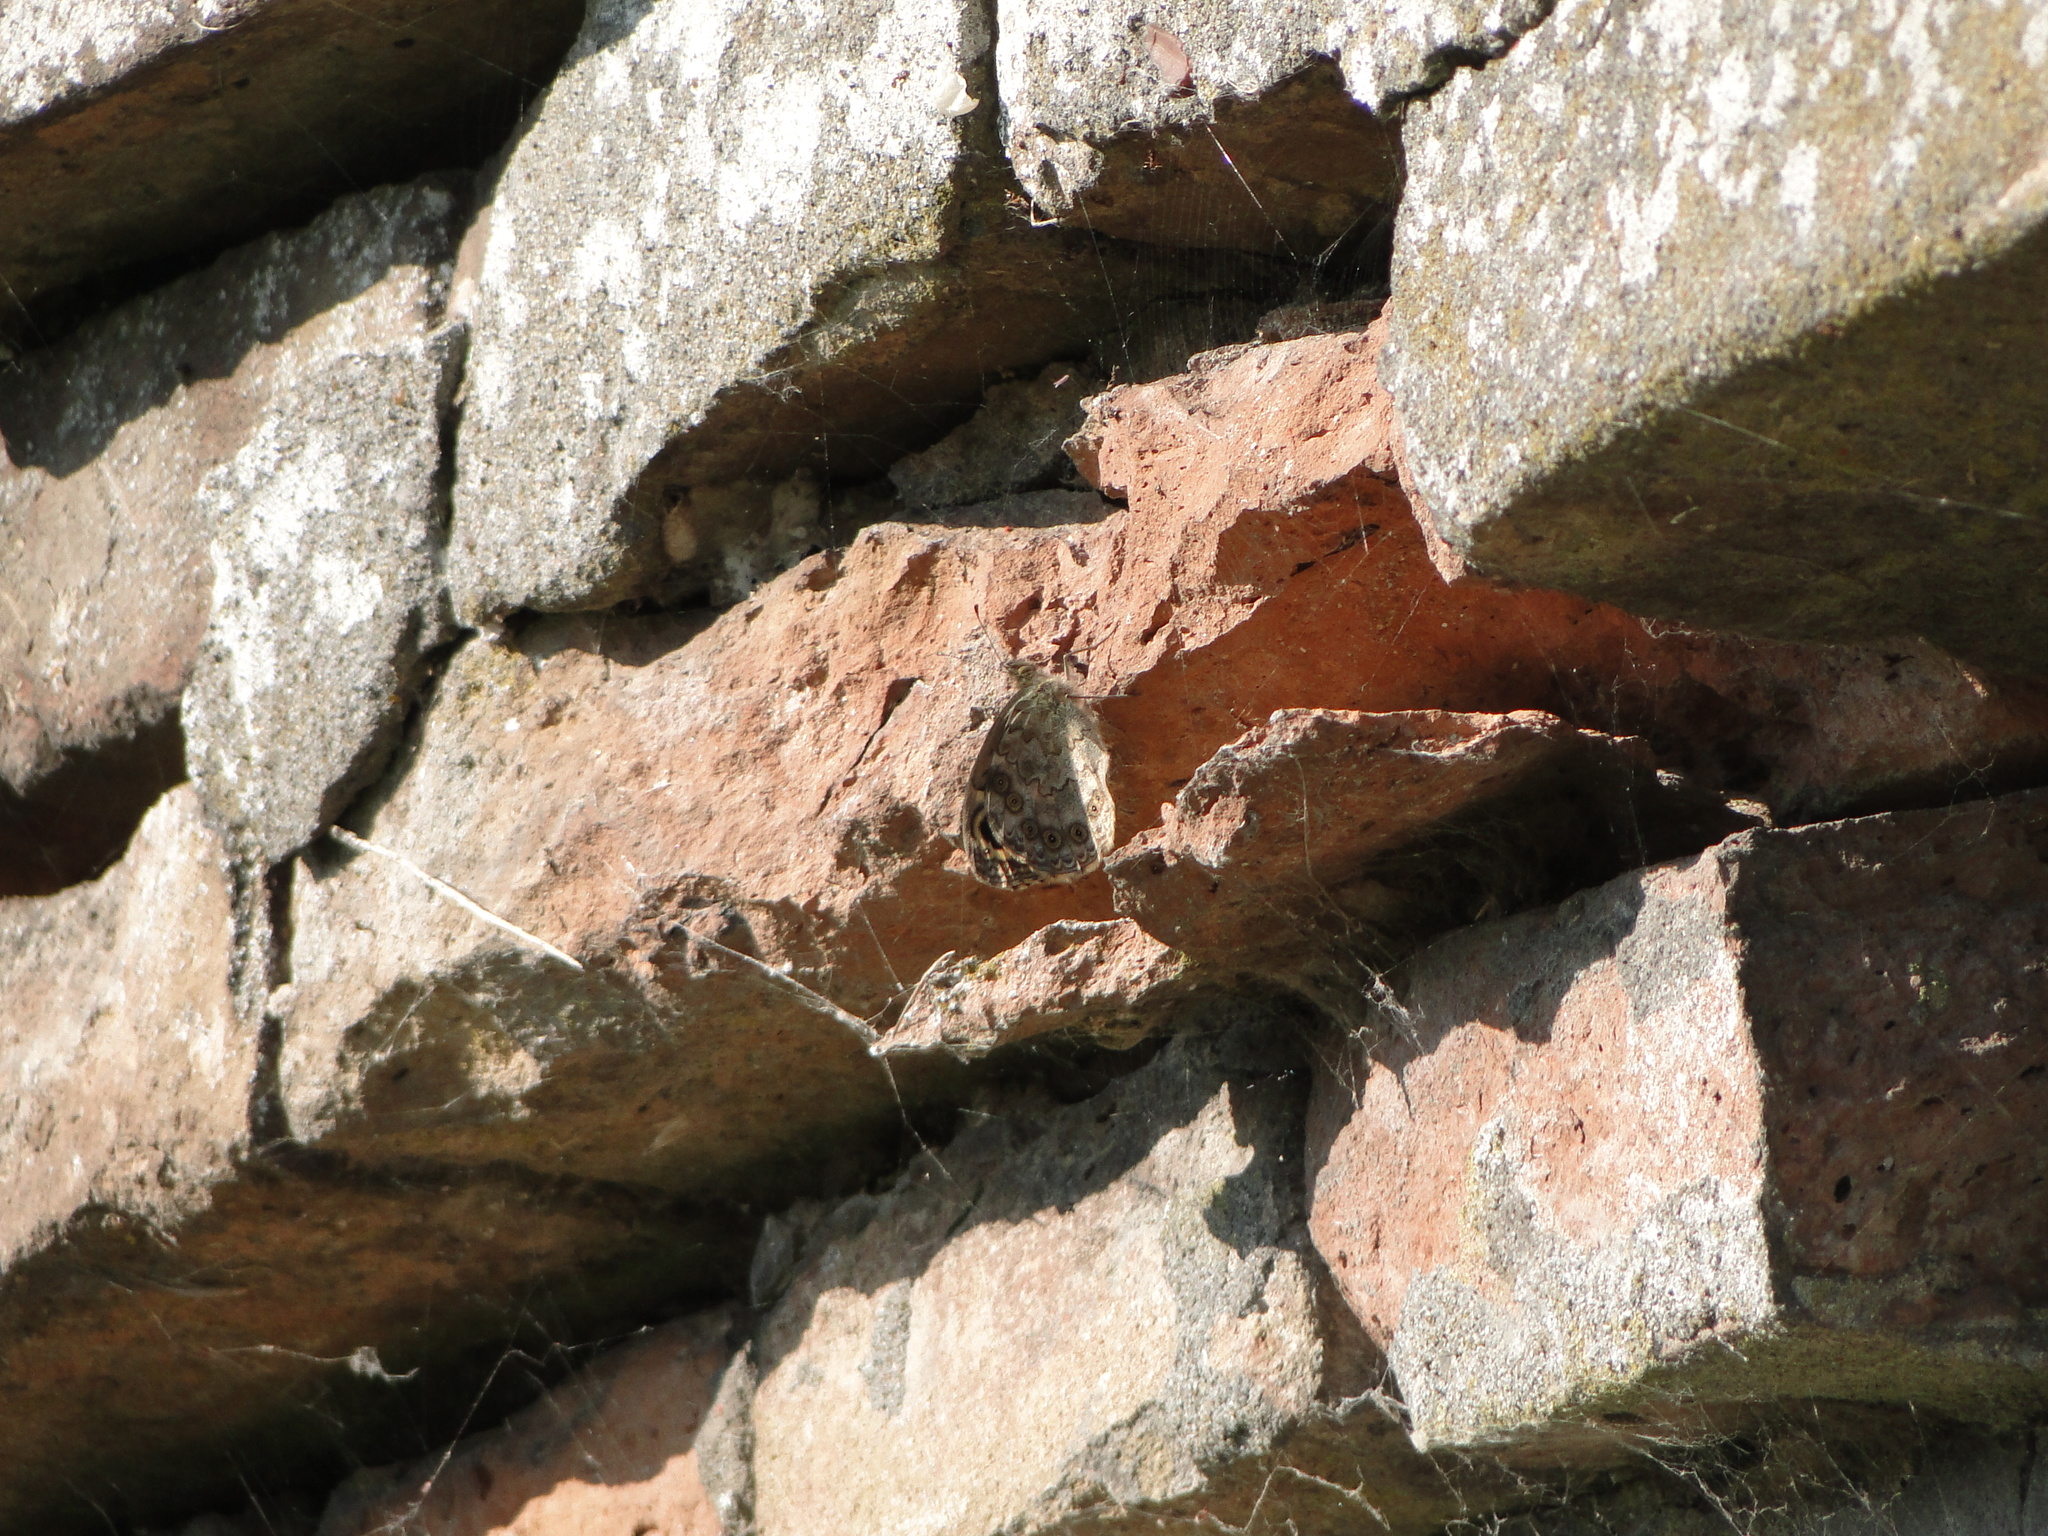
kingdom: Animalia
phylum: Arthropoda
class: Insecta
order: Lepidoptera
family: Nymphalidae
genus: Pararge
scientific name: Pararge Lasiommata megera
